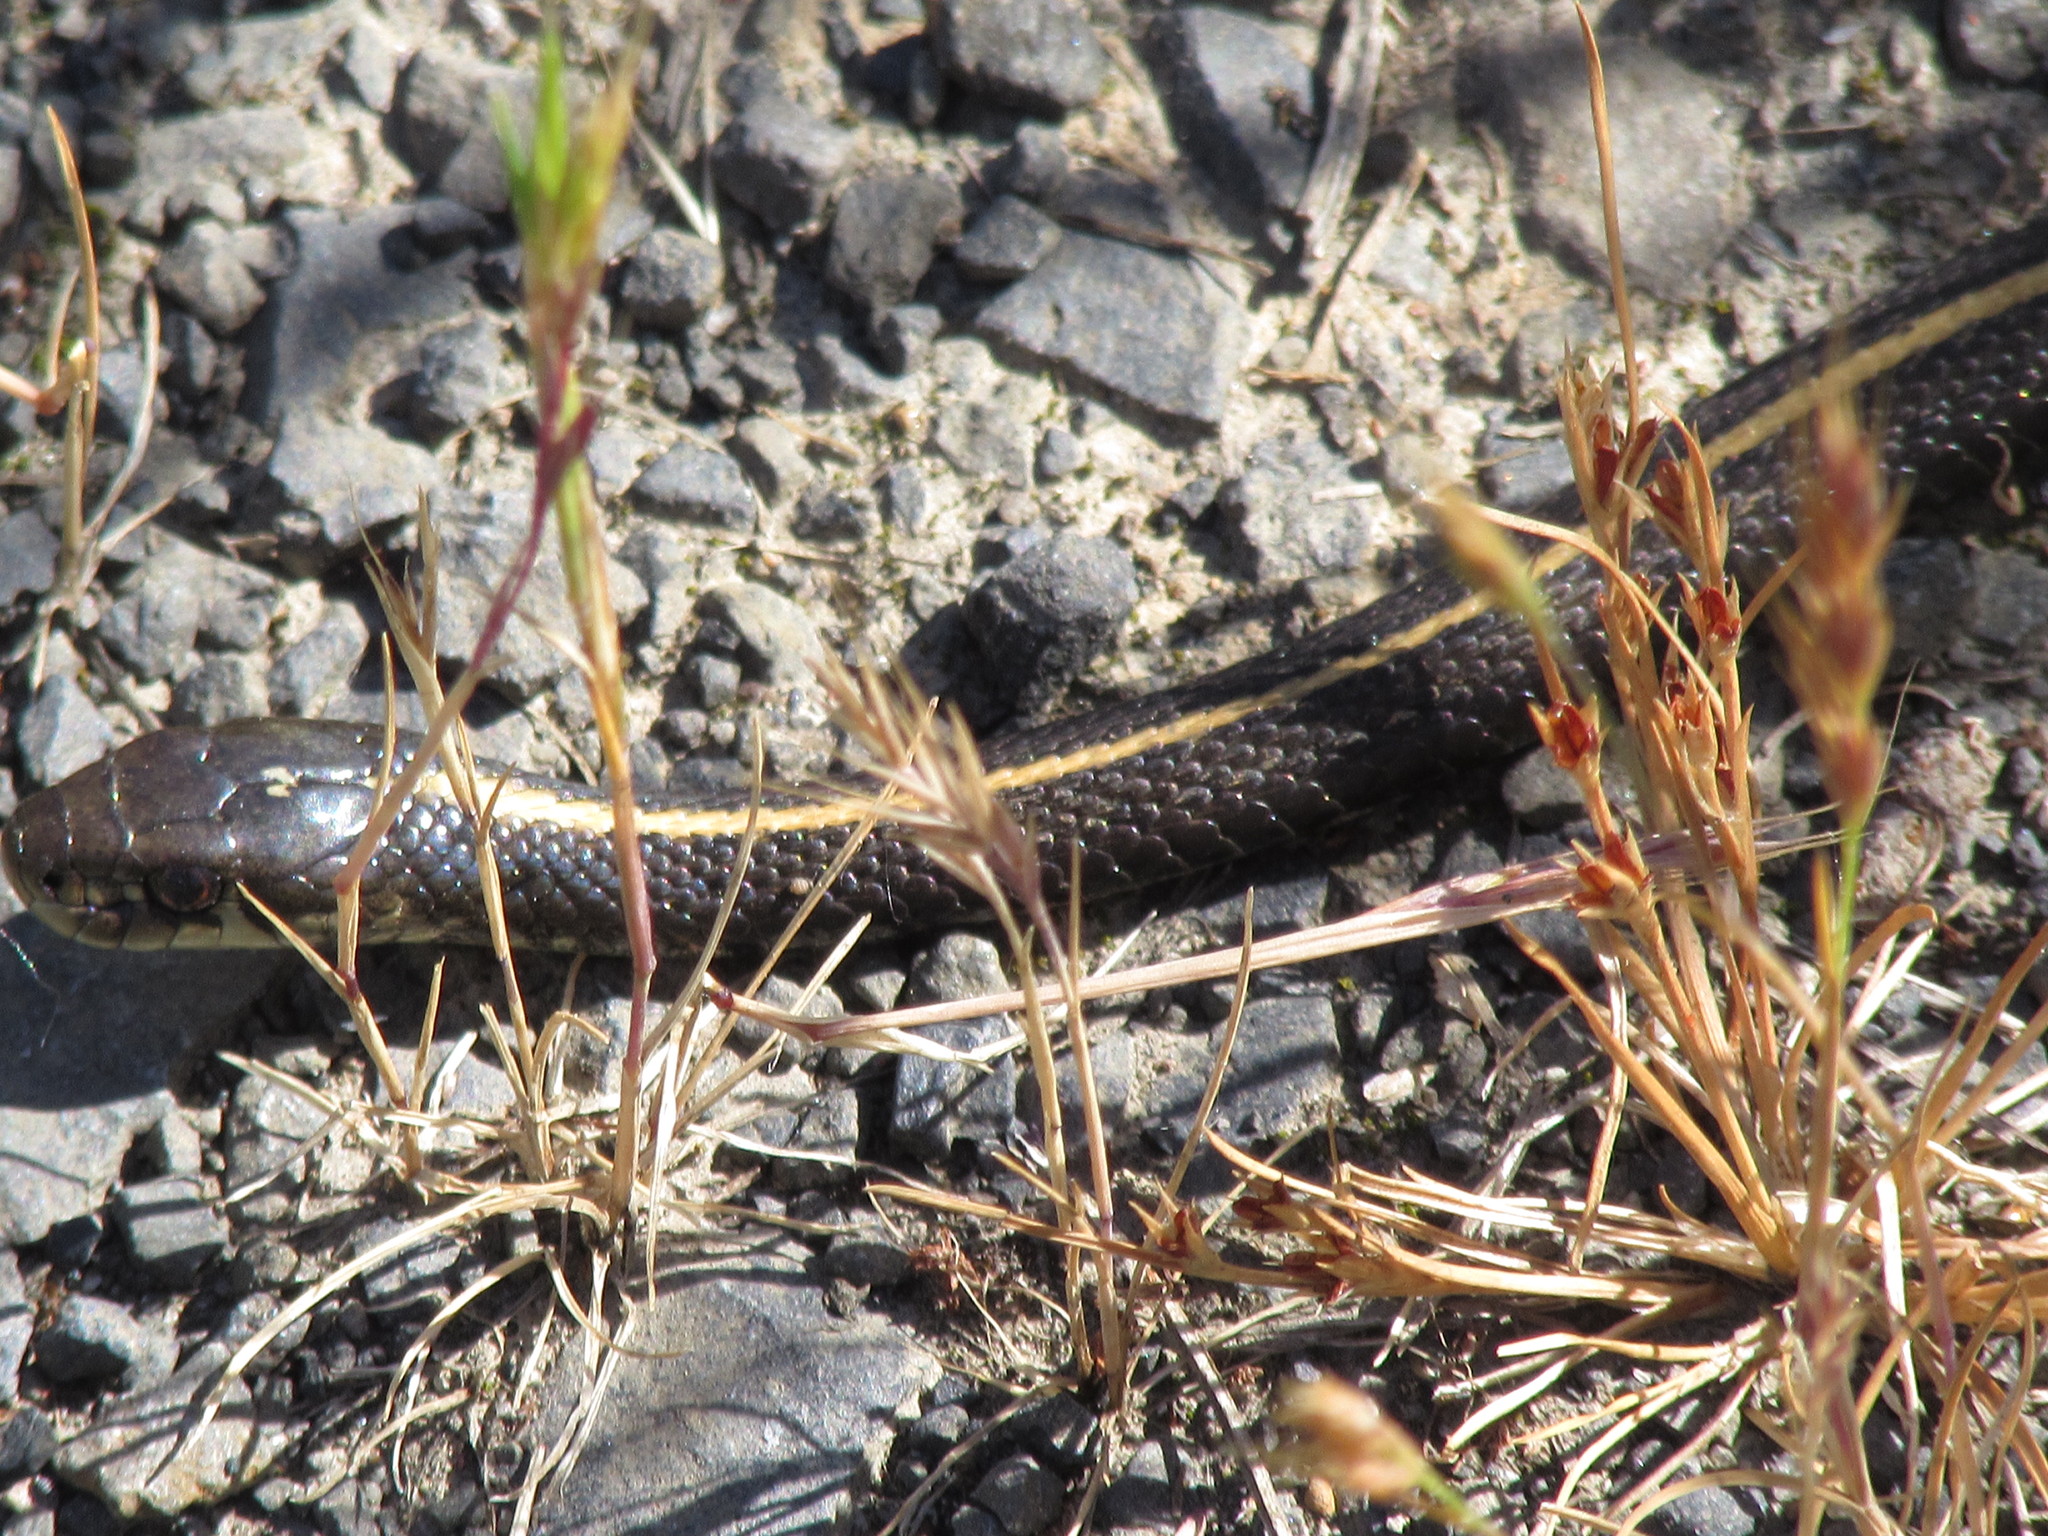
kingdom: Animalia
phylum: Chordata
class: Squamata
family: Colubridae
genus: Thamnophis
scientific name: Thamnophis ordinoides
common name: Northwestern garter snake
